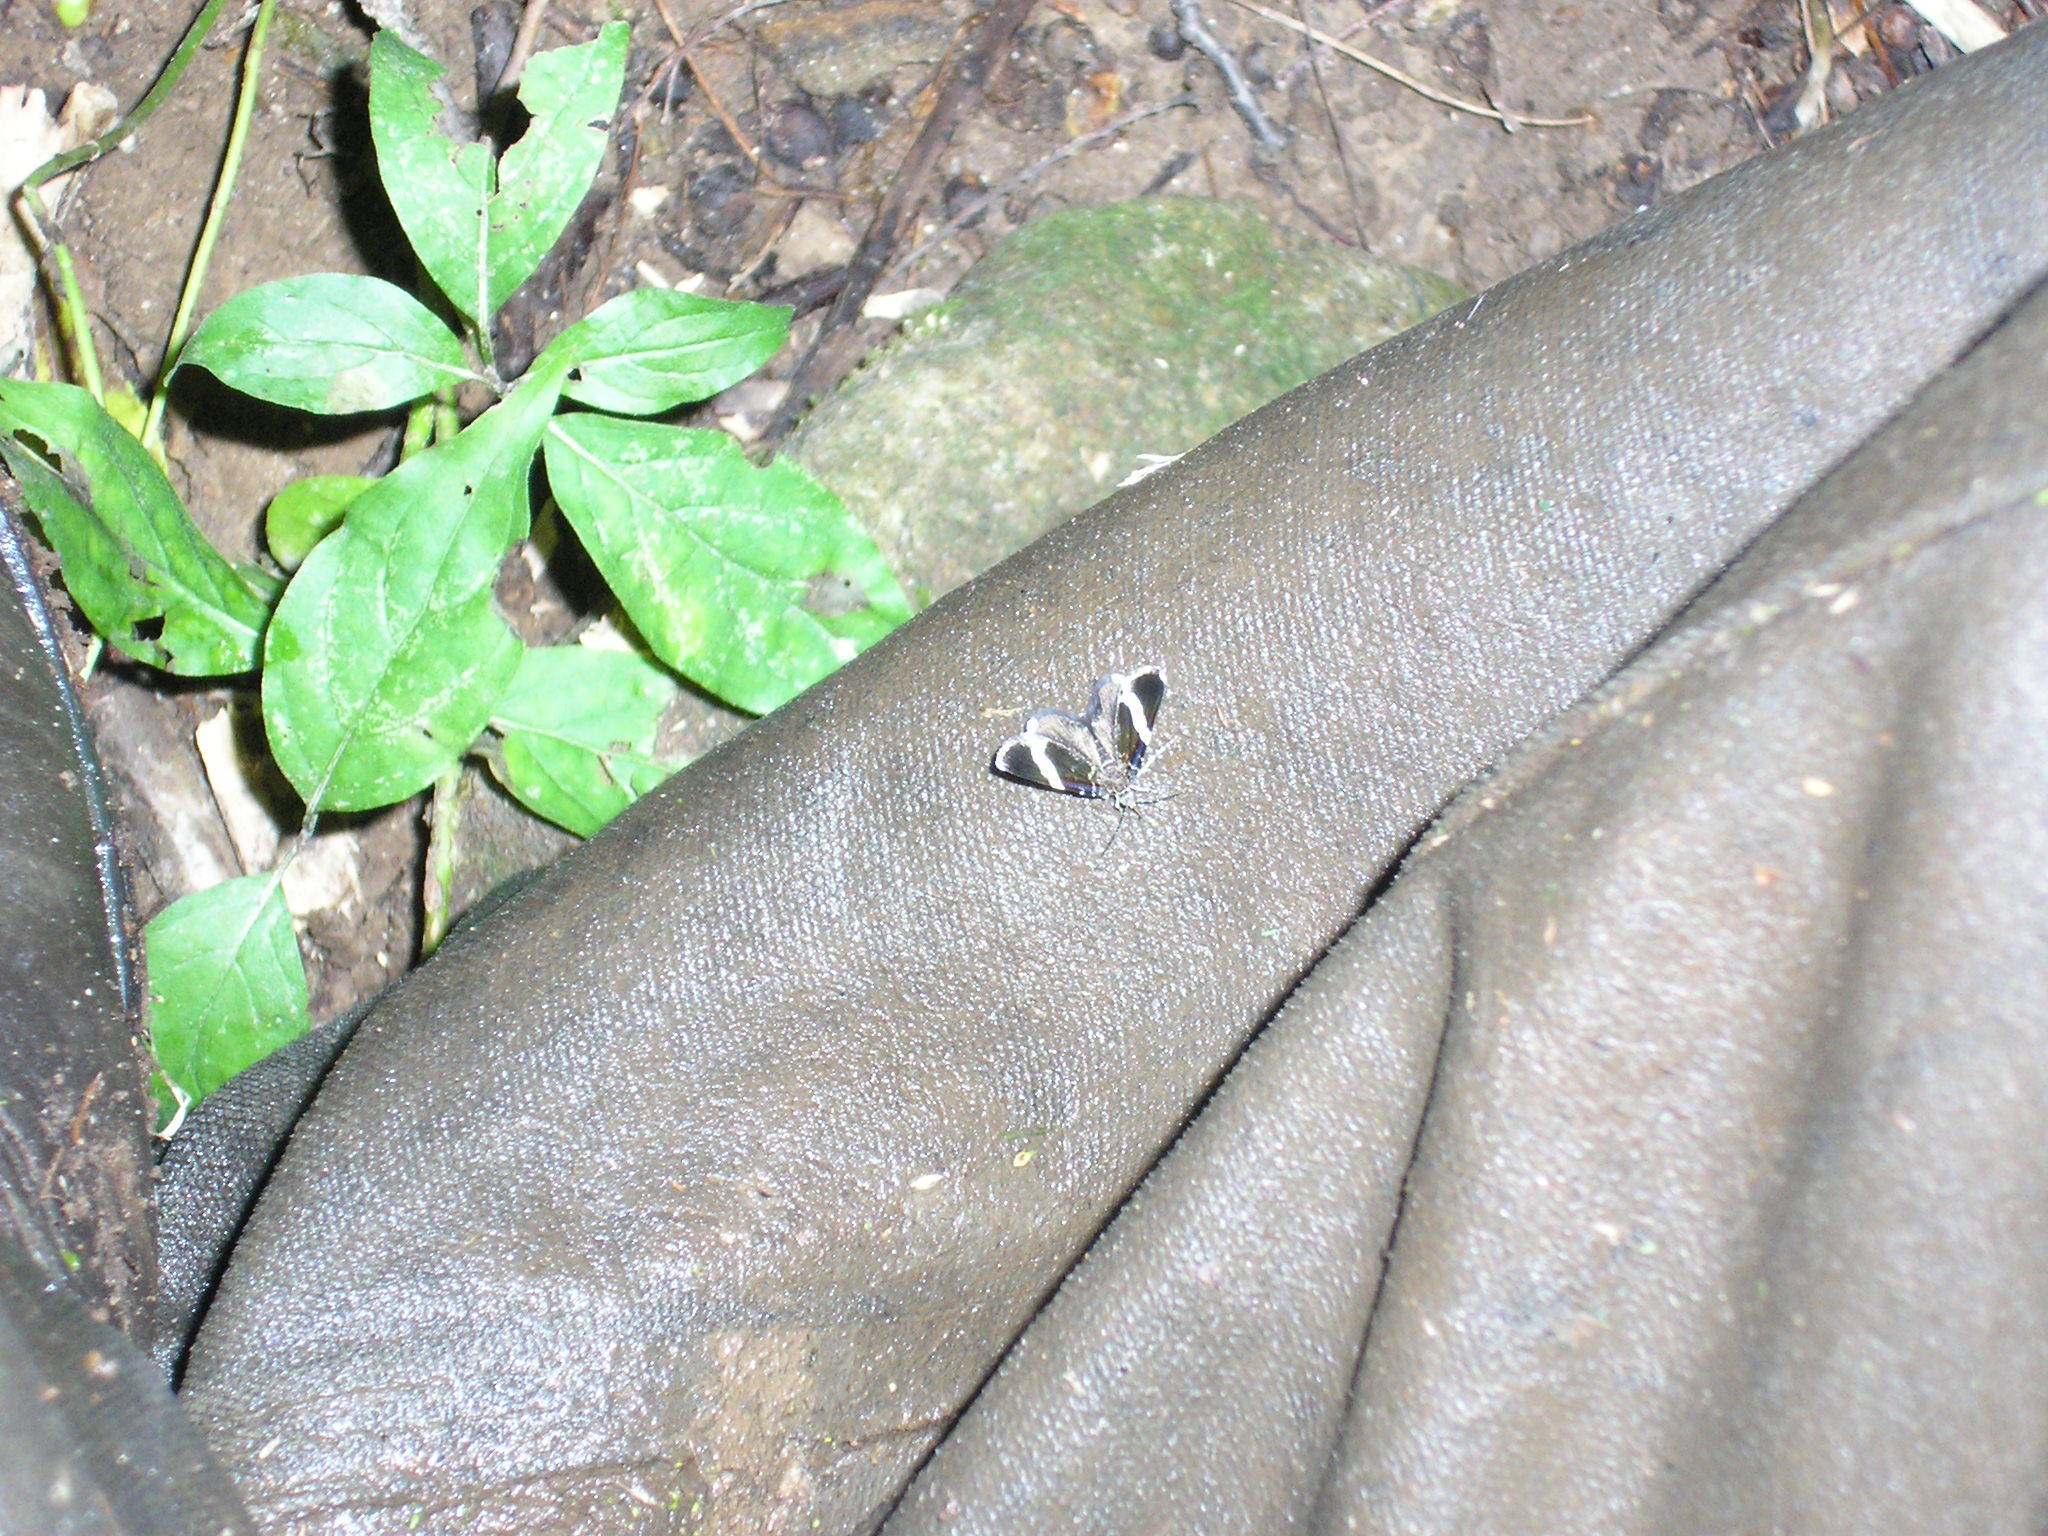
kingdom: Animalia
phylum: Arthropoda
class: Insecta
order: Lepidoptera
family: Geometridae
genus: Trichodezia
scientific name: Trichodezia albovittata
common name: White striped black
